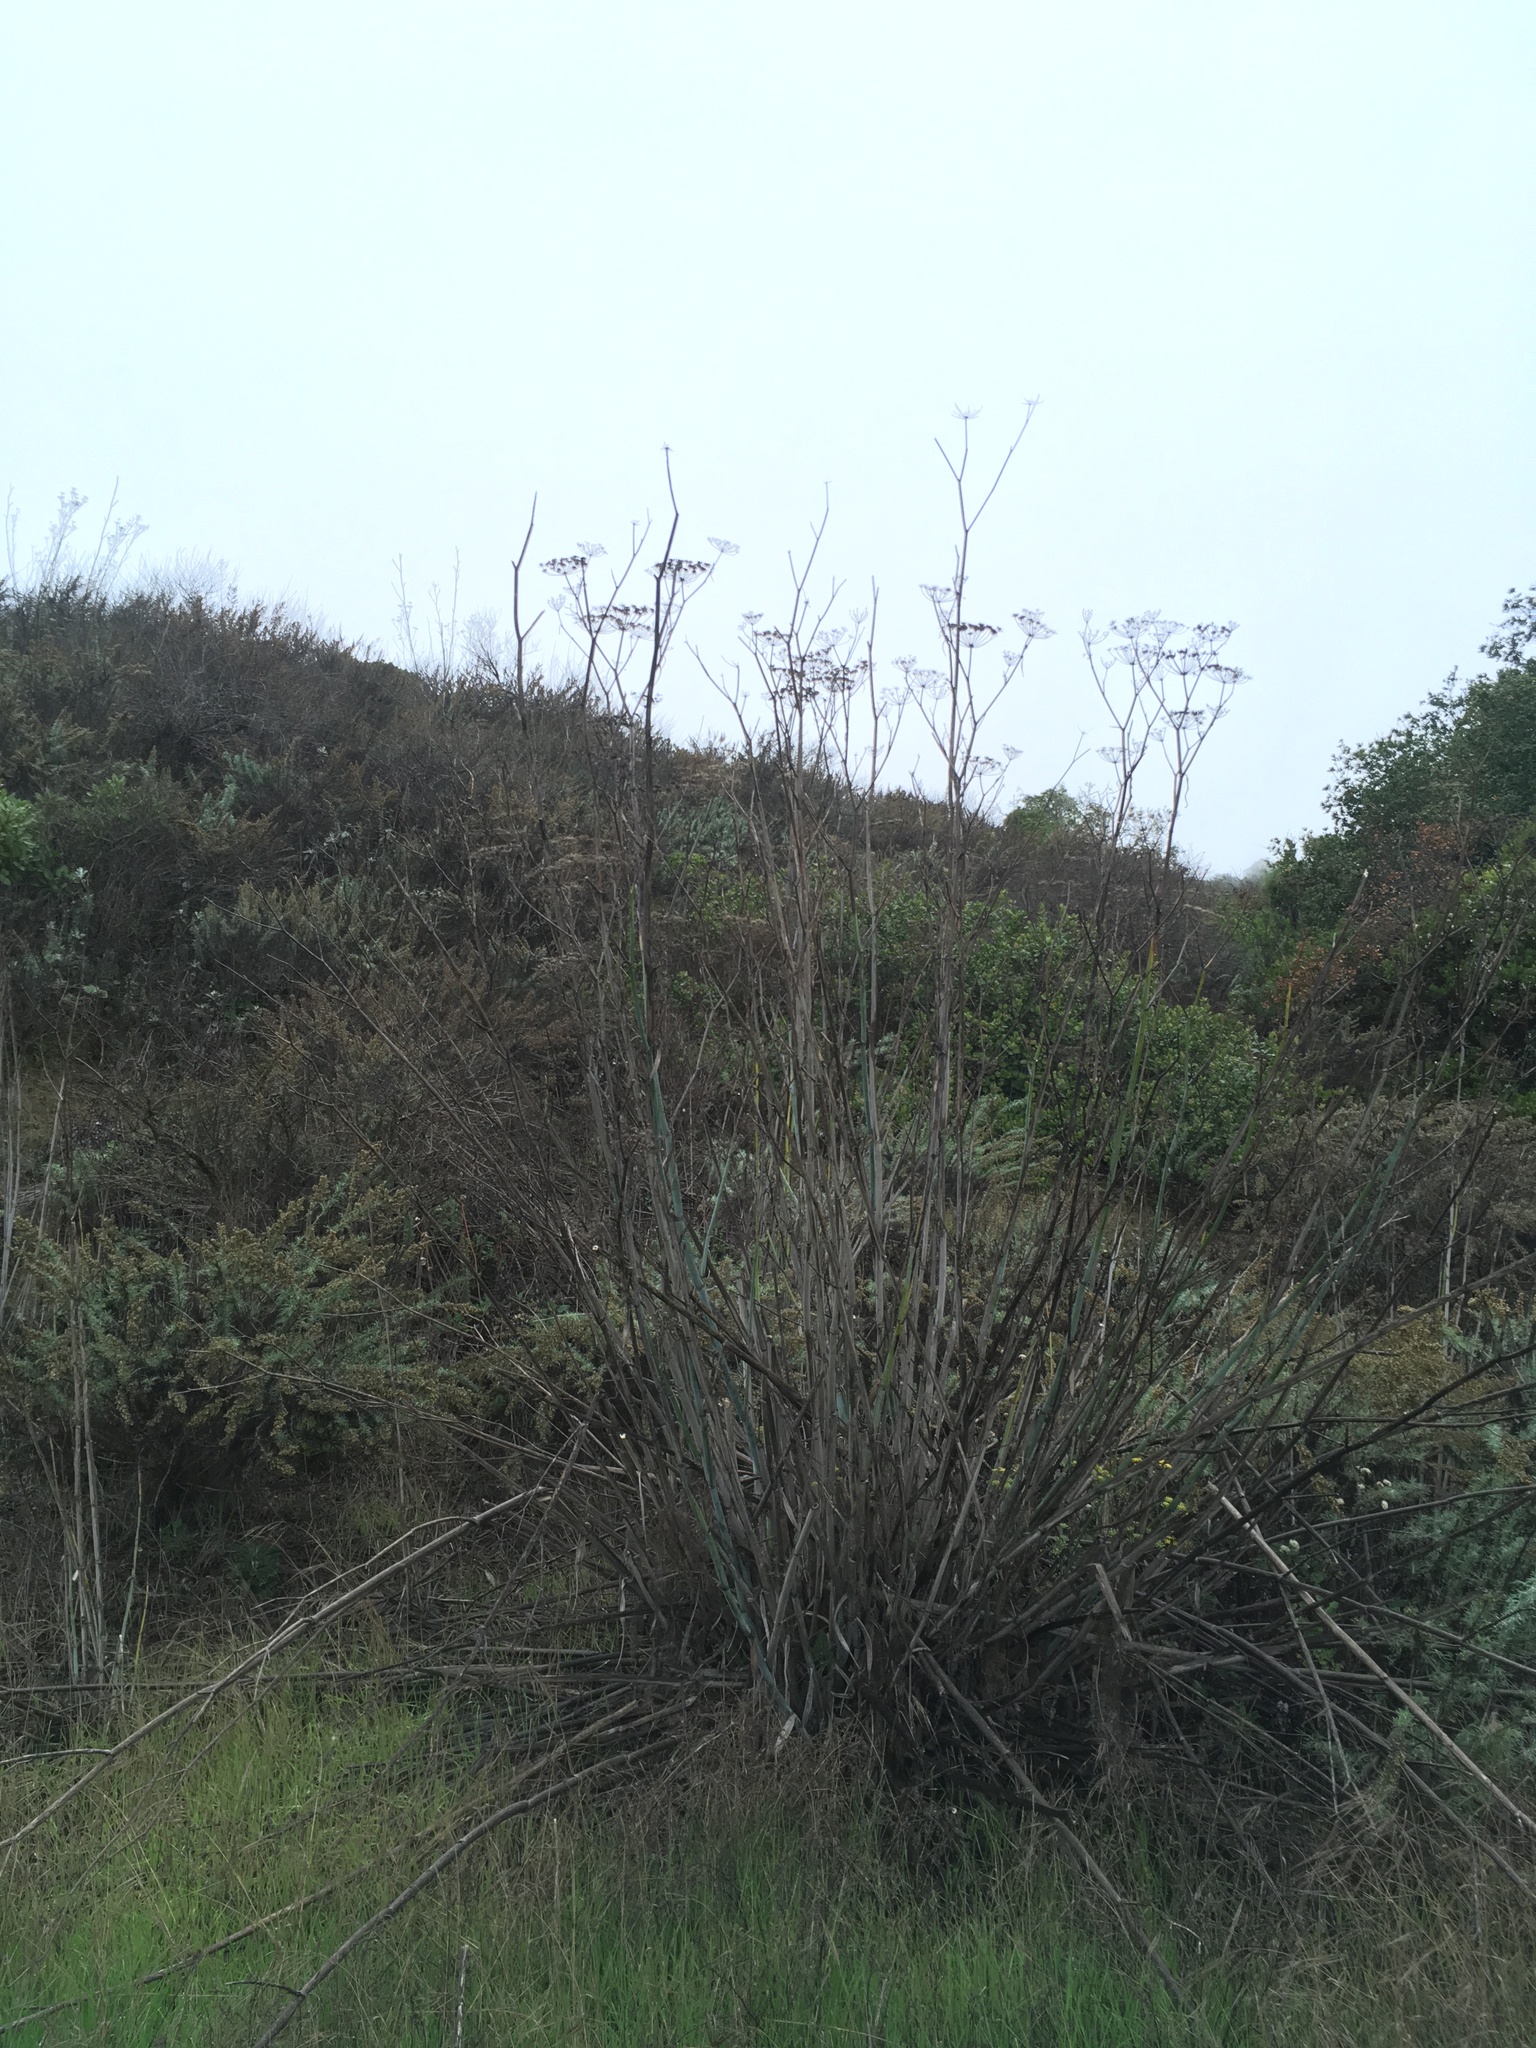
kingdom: Plantae
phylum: Tracheophyta
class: Magnoliopsida
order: Apiales
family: Apiaceae
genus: Foeniculum
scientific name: Foeniculum vulgare
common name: Fennel
